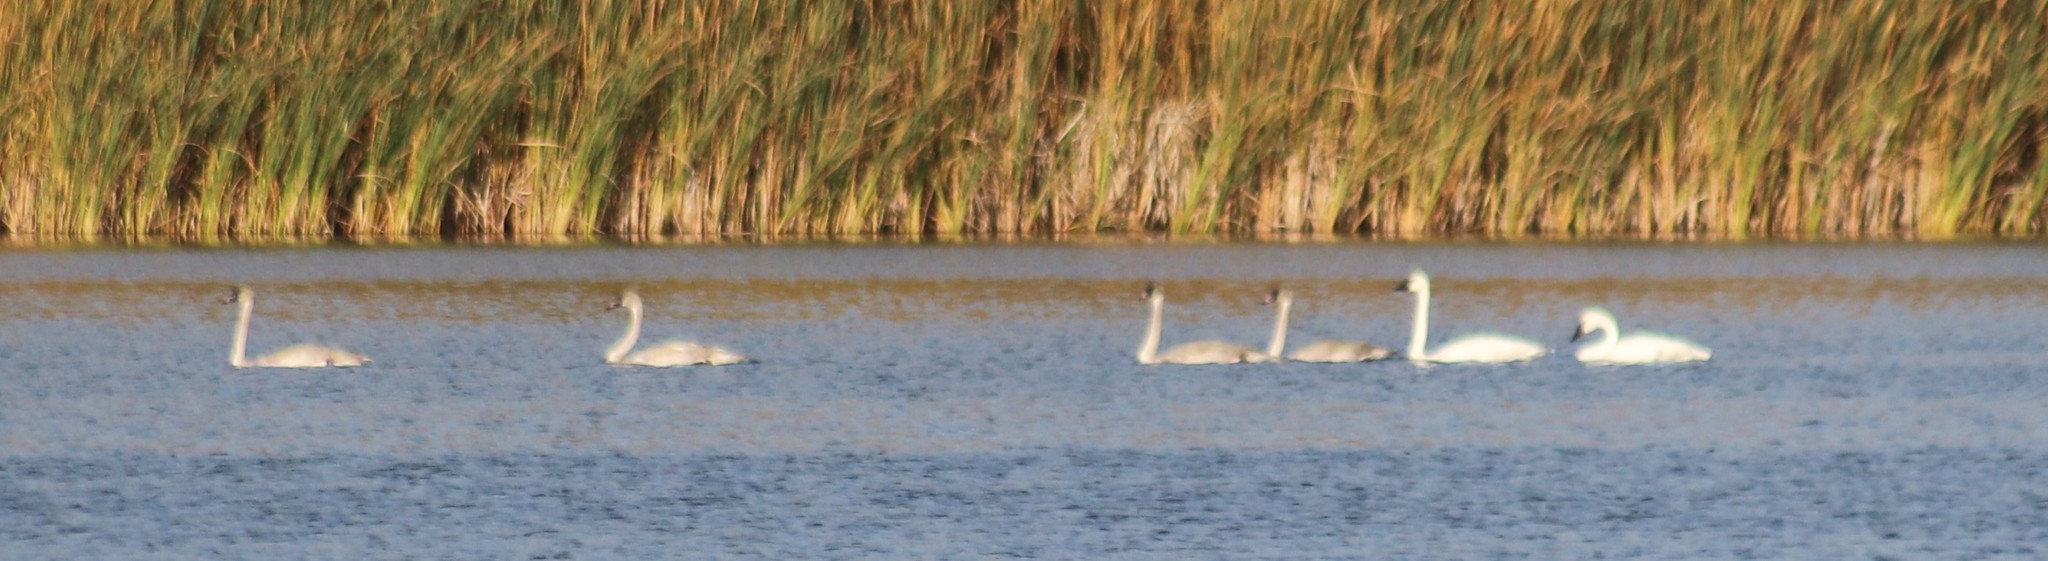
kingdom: Animalia
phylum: Chordata
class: Aves
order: Anseriformes
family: Anatidae
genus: Cygnus
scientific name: Cygnus buccinator
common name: Trumpeter swan
